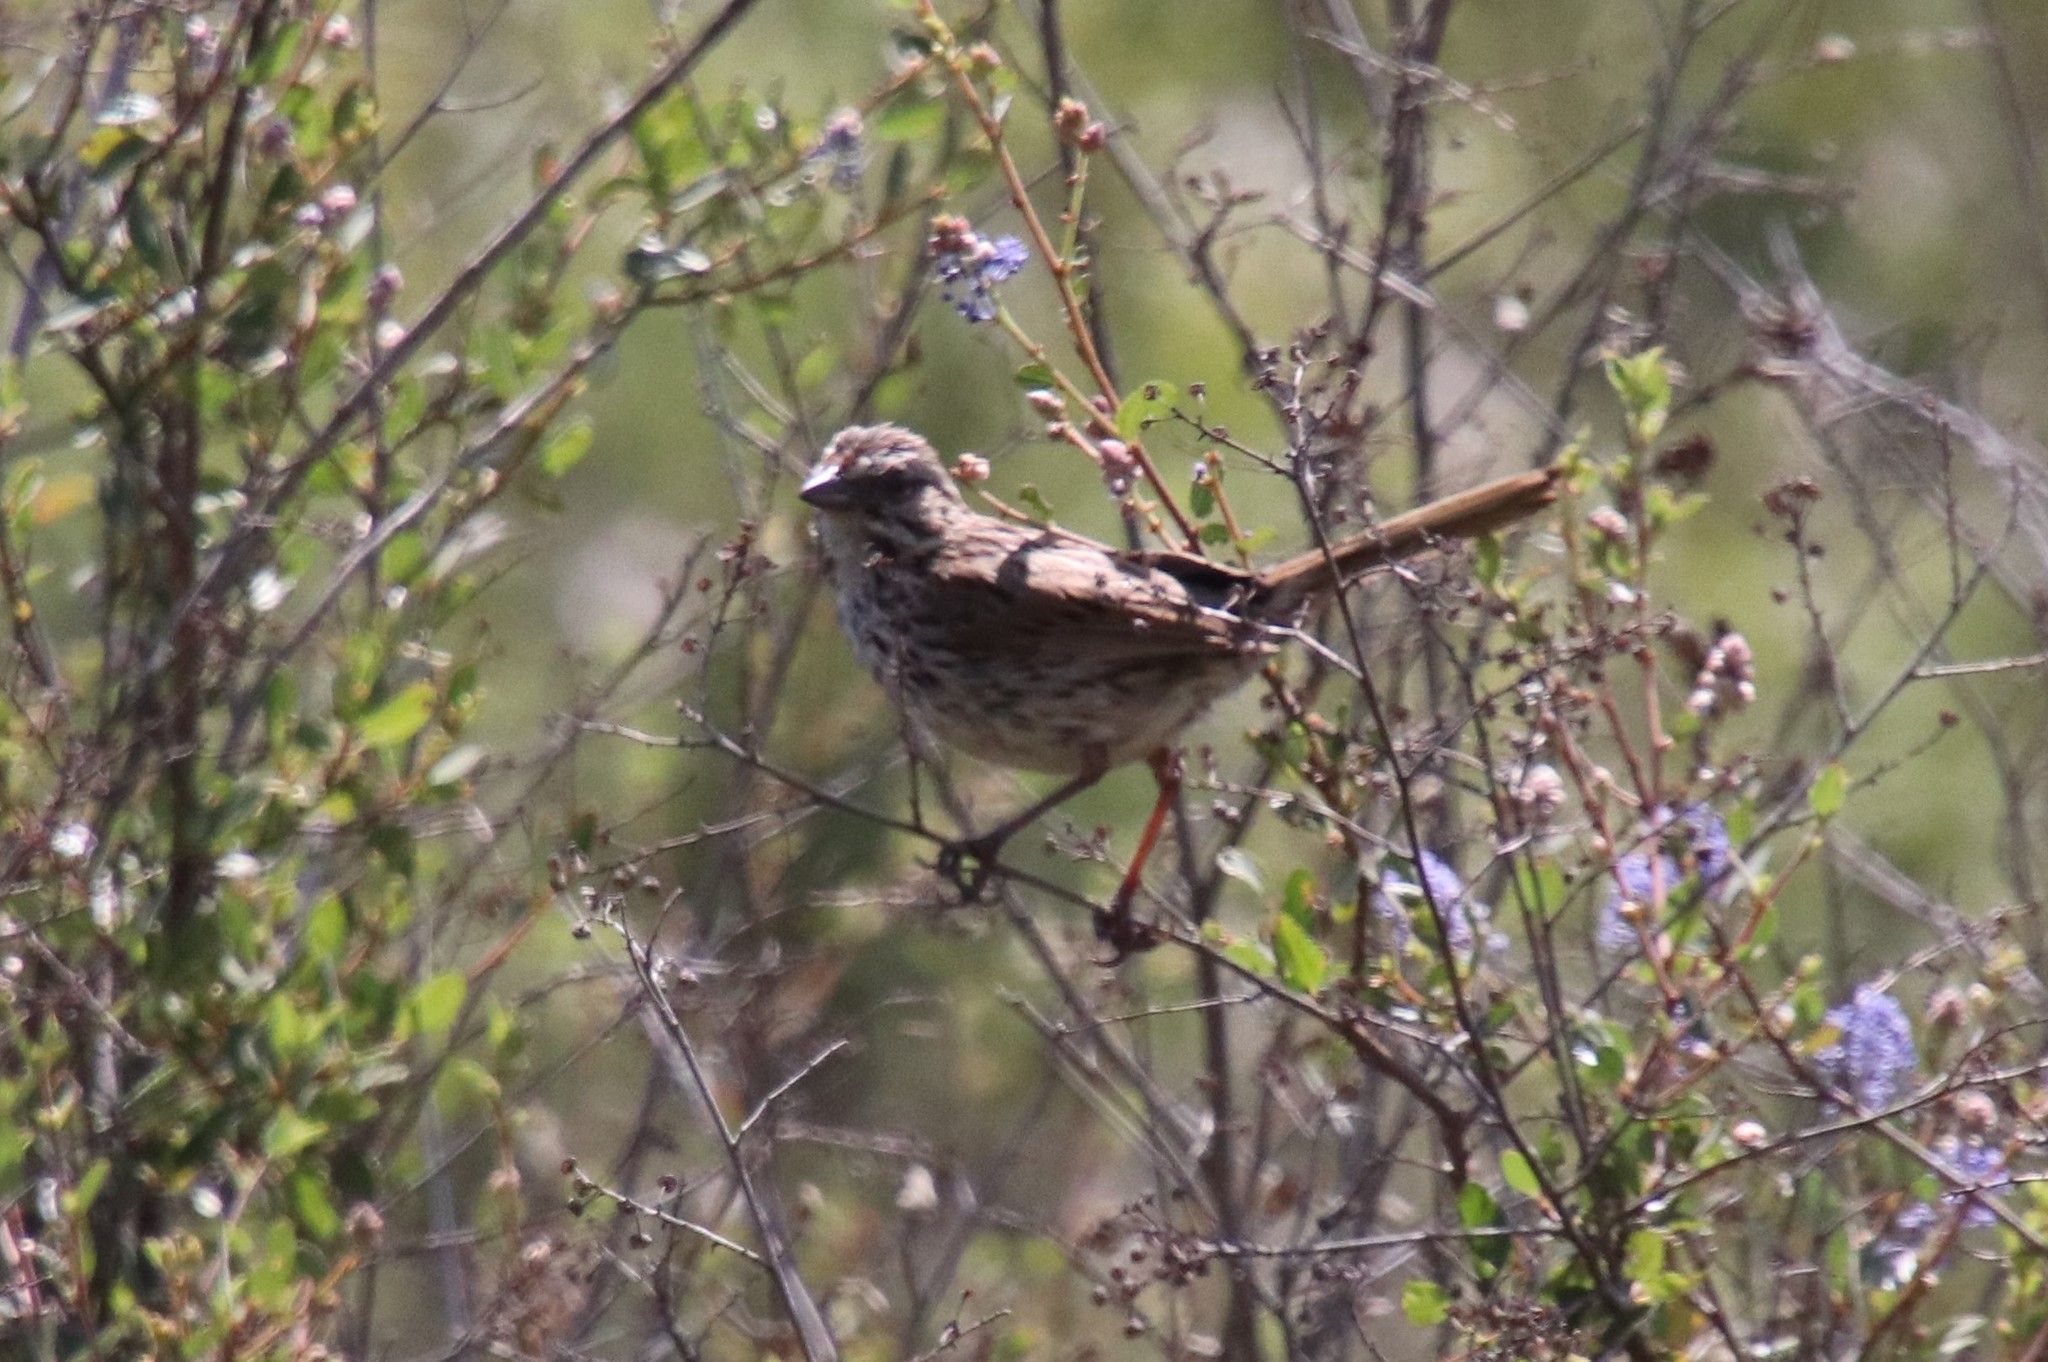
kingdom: Animalia
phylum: Chordata
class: Aves
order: Passeriformes
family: Passerellidae
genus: Melospiza
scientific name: Melospiza melodia
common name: Song sparrow
